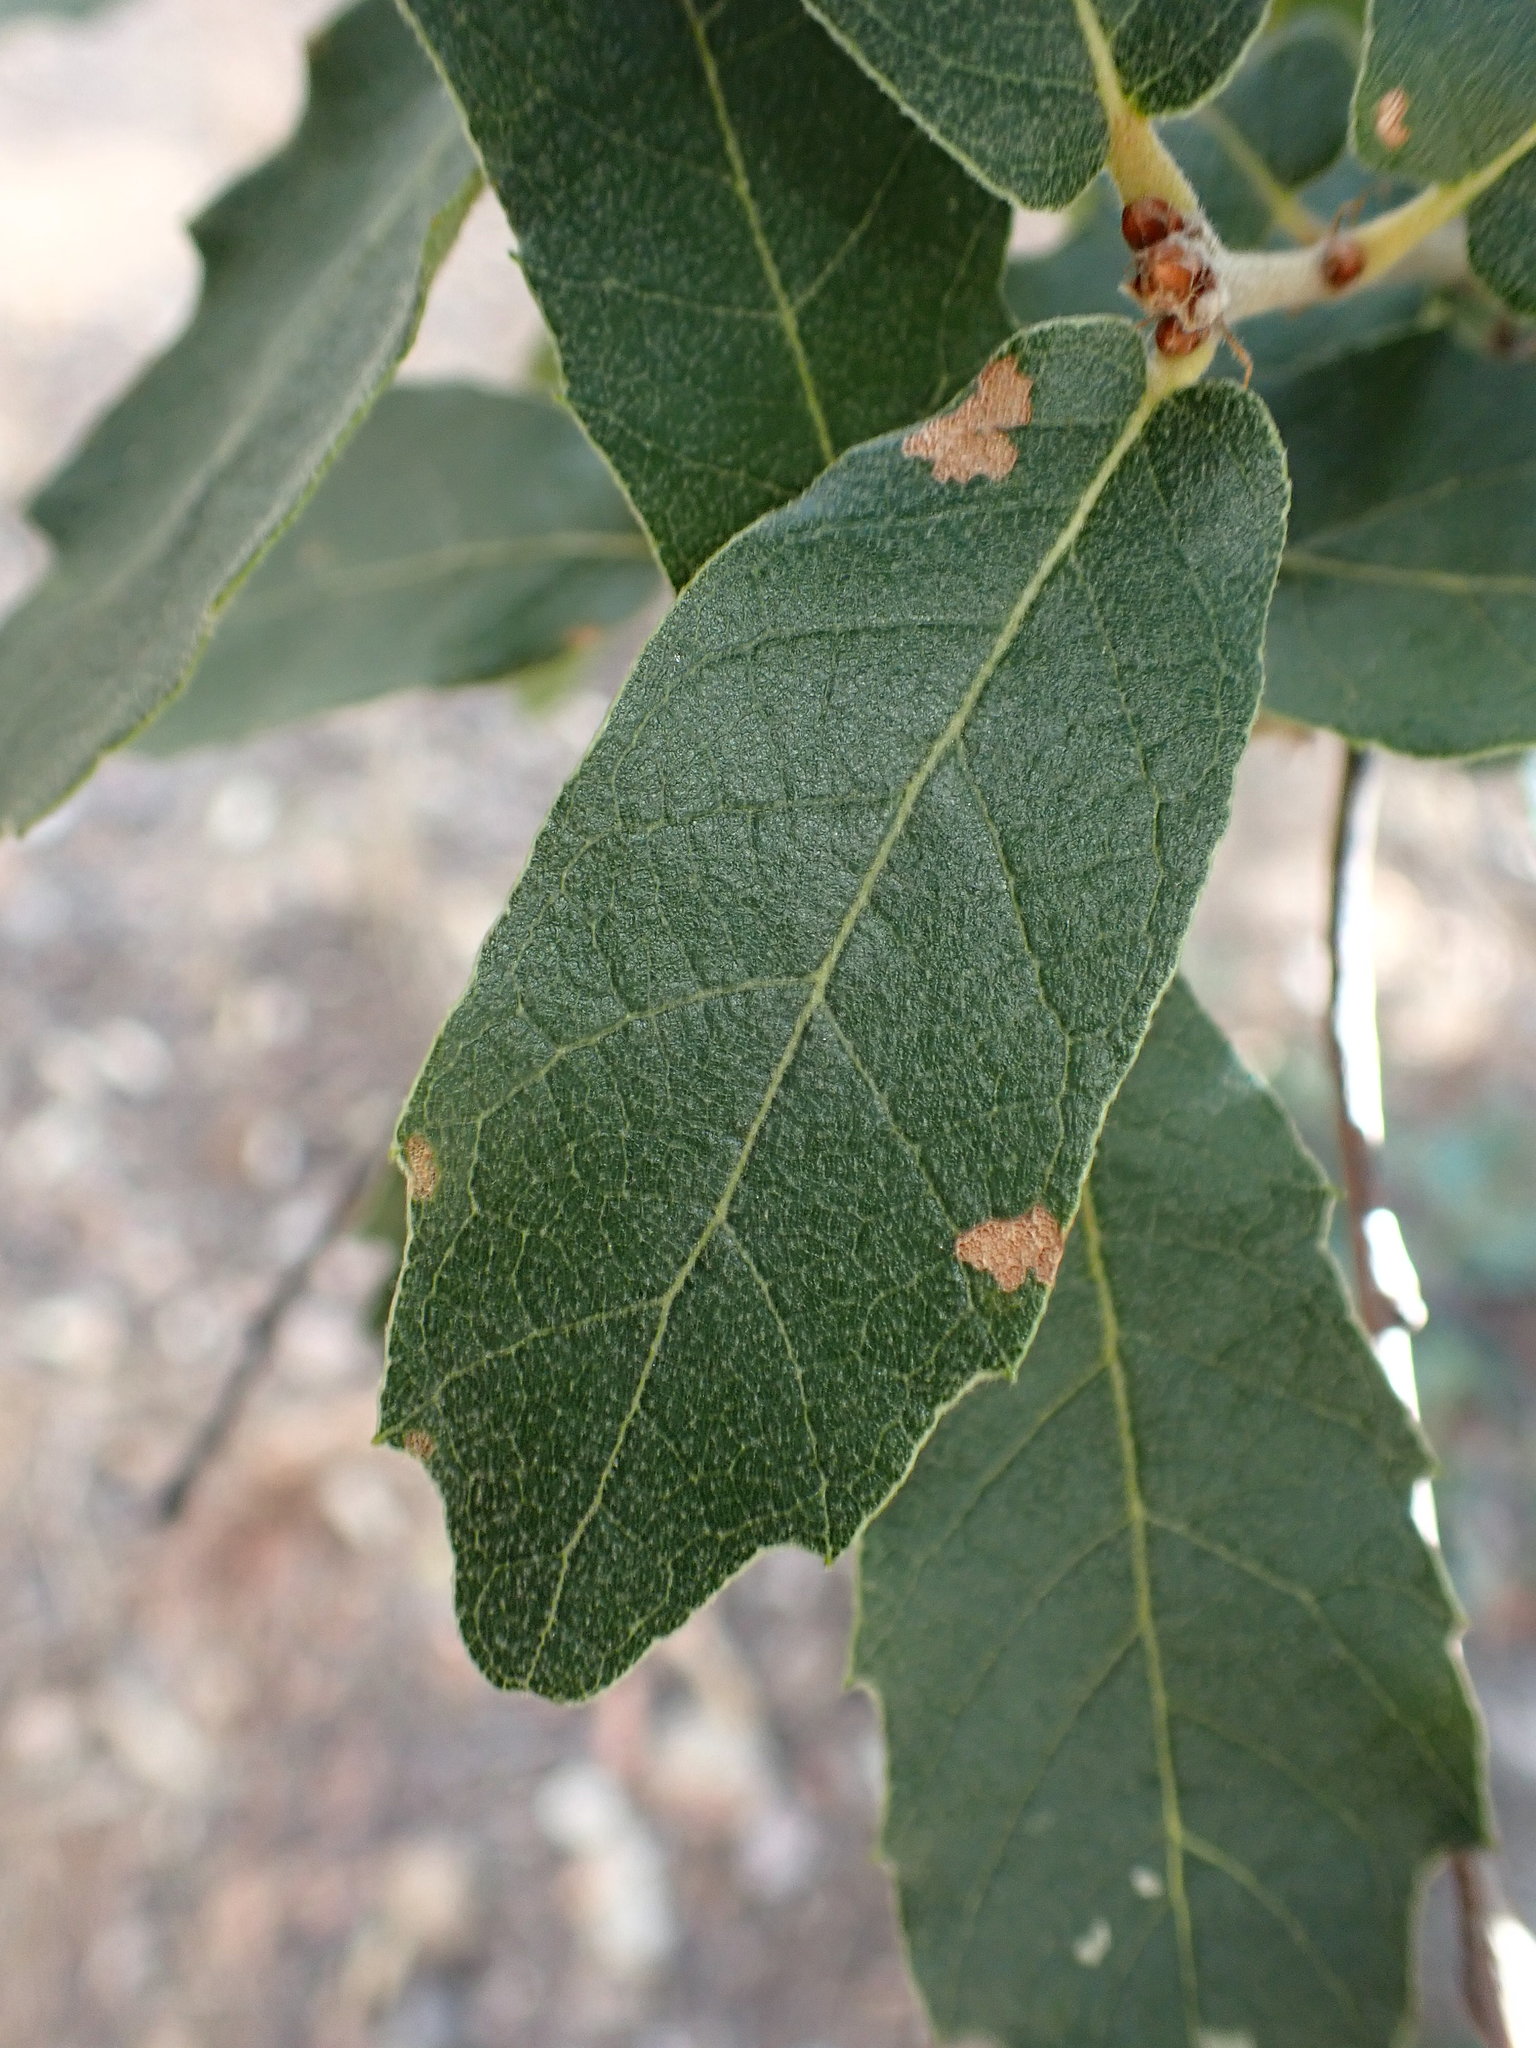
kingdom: Plantae
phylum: Tracheophyta
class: Magnoliopsida
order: Fagales
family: Fagaceae
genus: Quercus
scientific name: Quercus arizonica
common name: Arizona white oak
